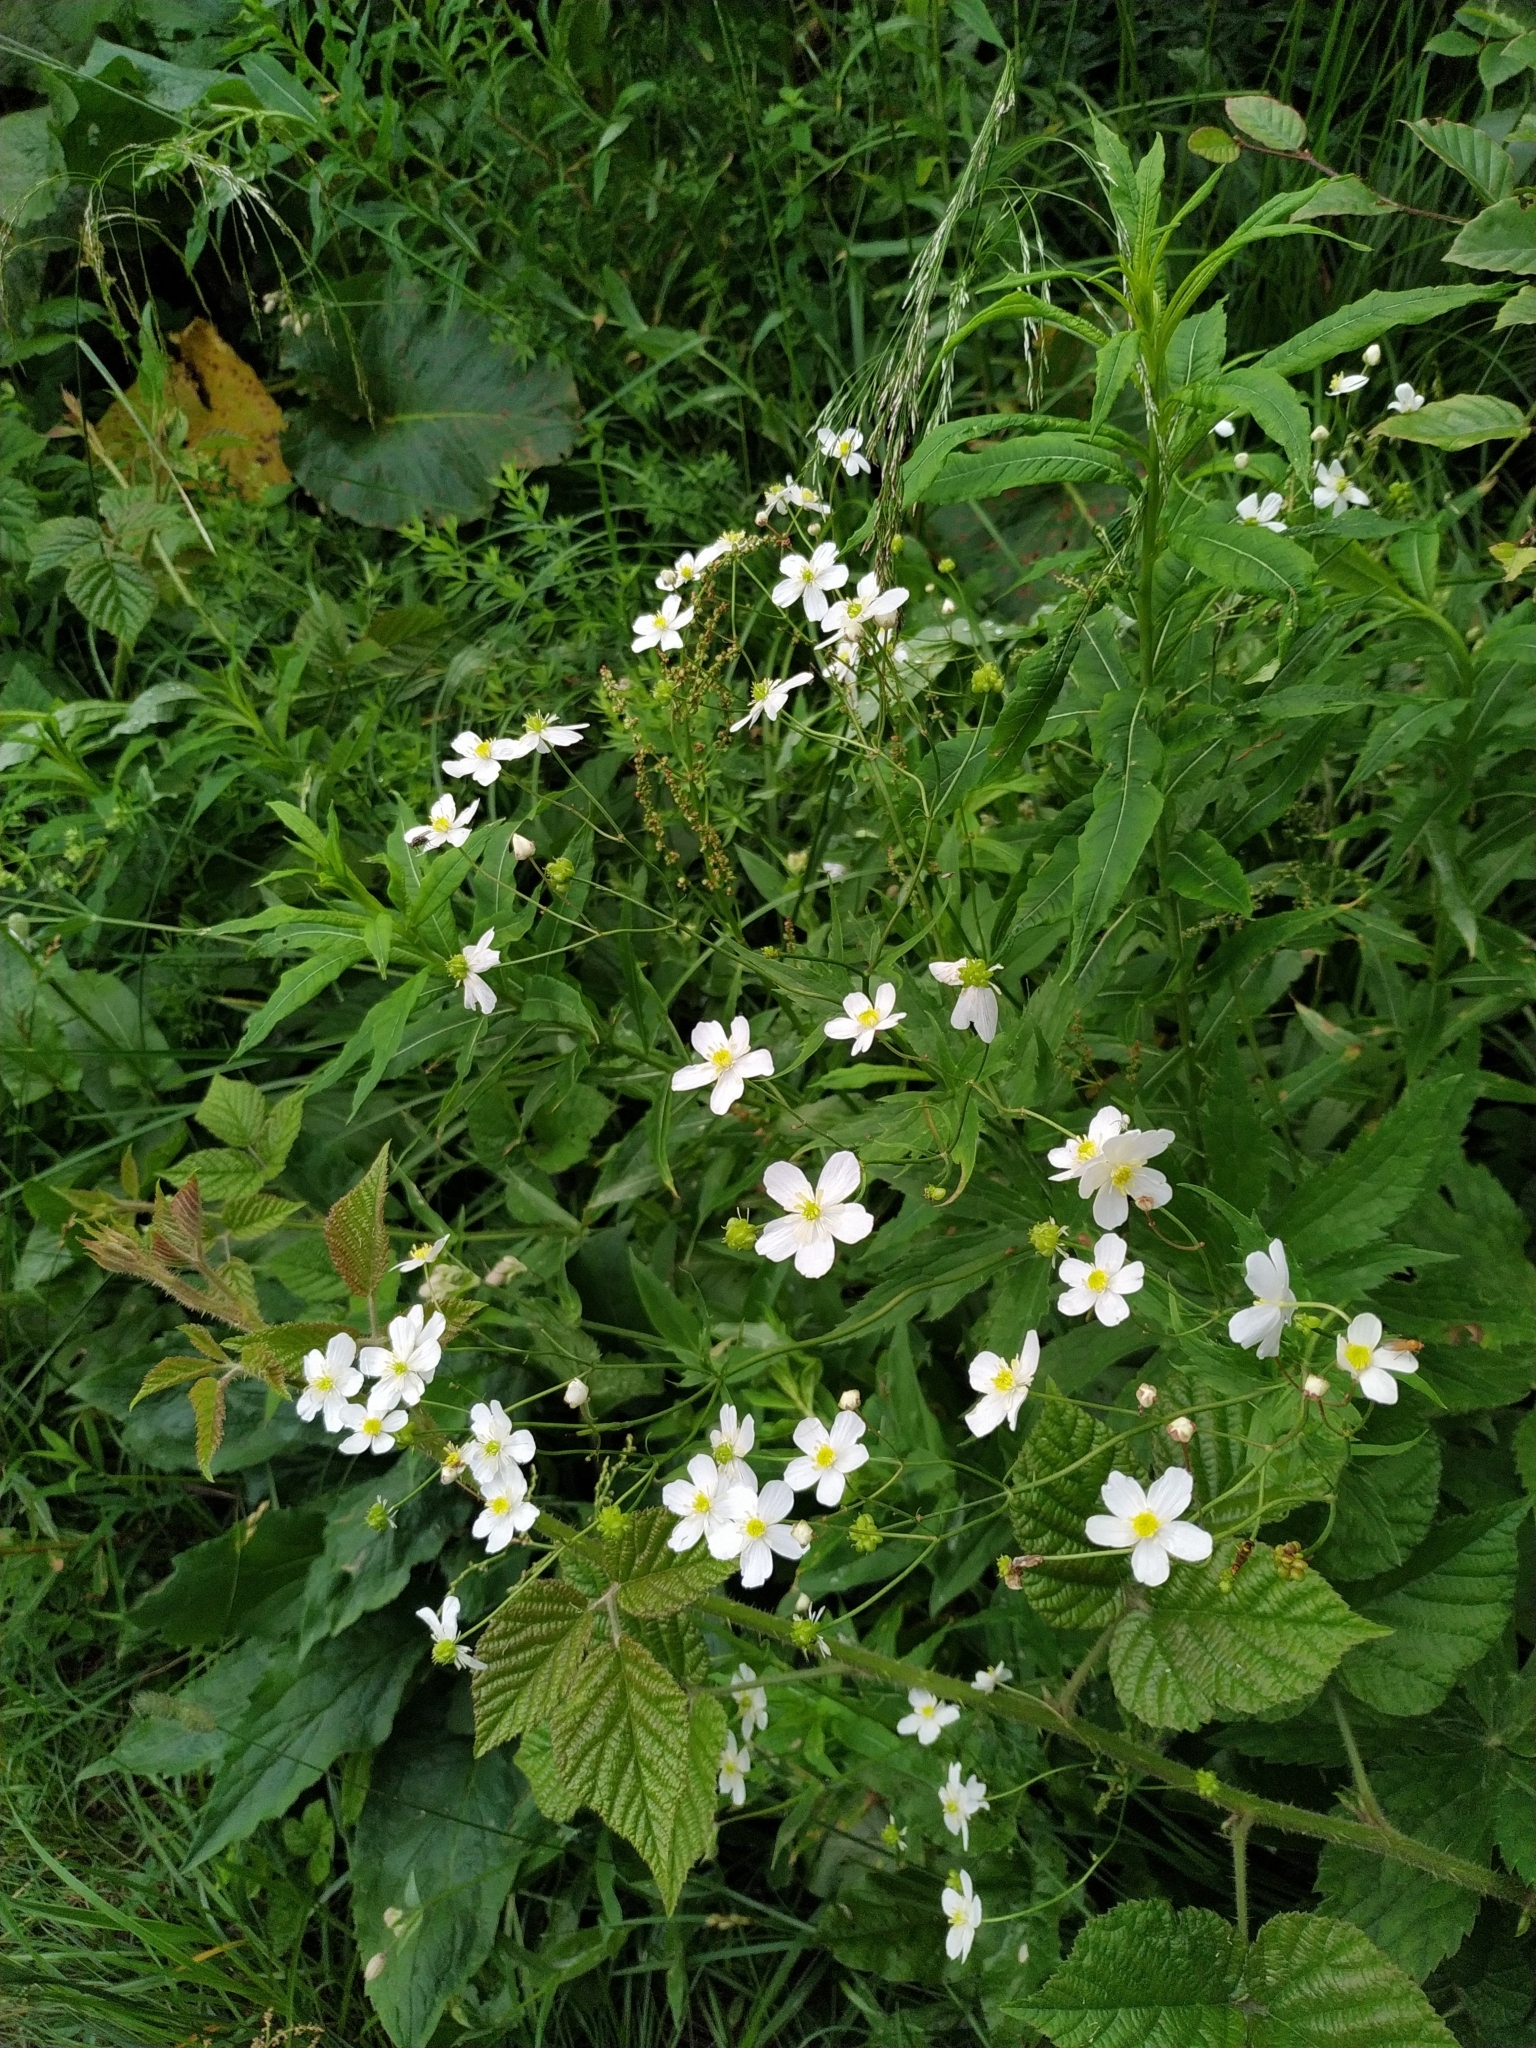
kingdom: Plantae
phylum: Tracheophyta
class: Magnoliopsida
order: Ranunculales
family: Ranunculaceae
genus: Ranunculus
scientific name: Ranunculus platanifolius
